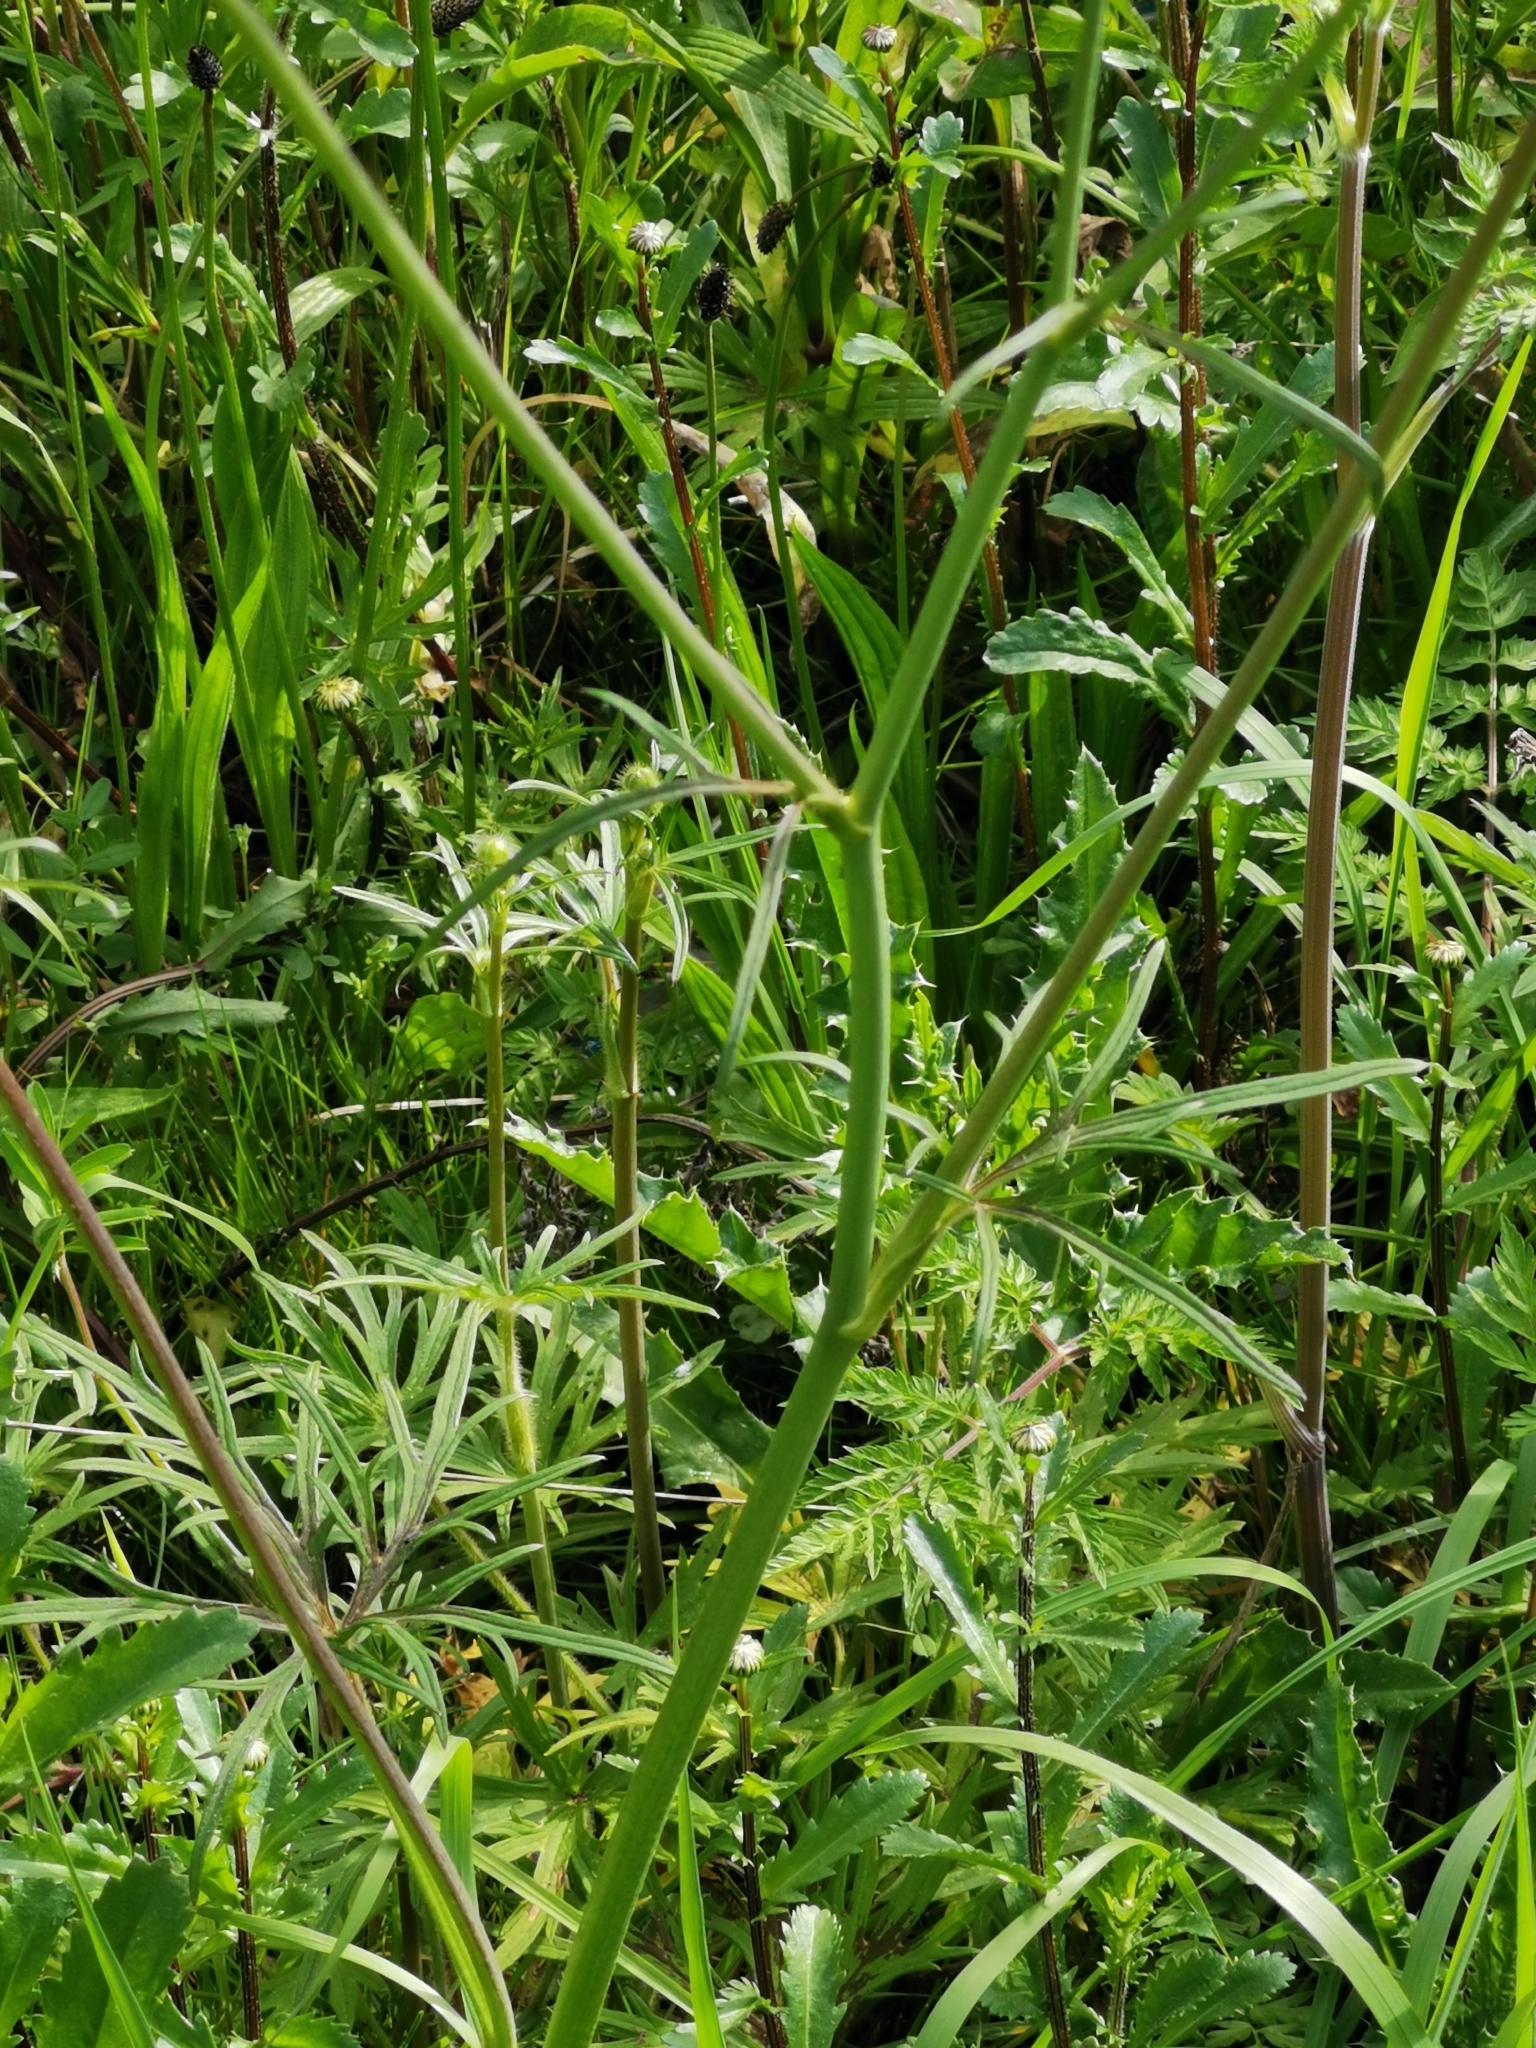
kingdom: Plantae
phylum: Tracheophyta
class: Magnoliopsida
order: Ranunculales
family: Ranunculaceae
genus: Ranunculus
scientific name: Ranunculus acris
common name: Meadow buttercup
